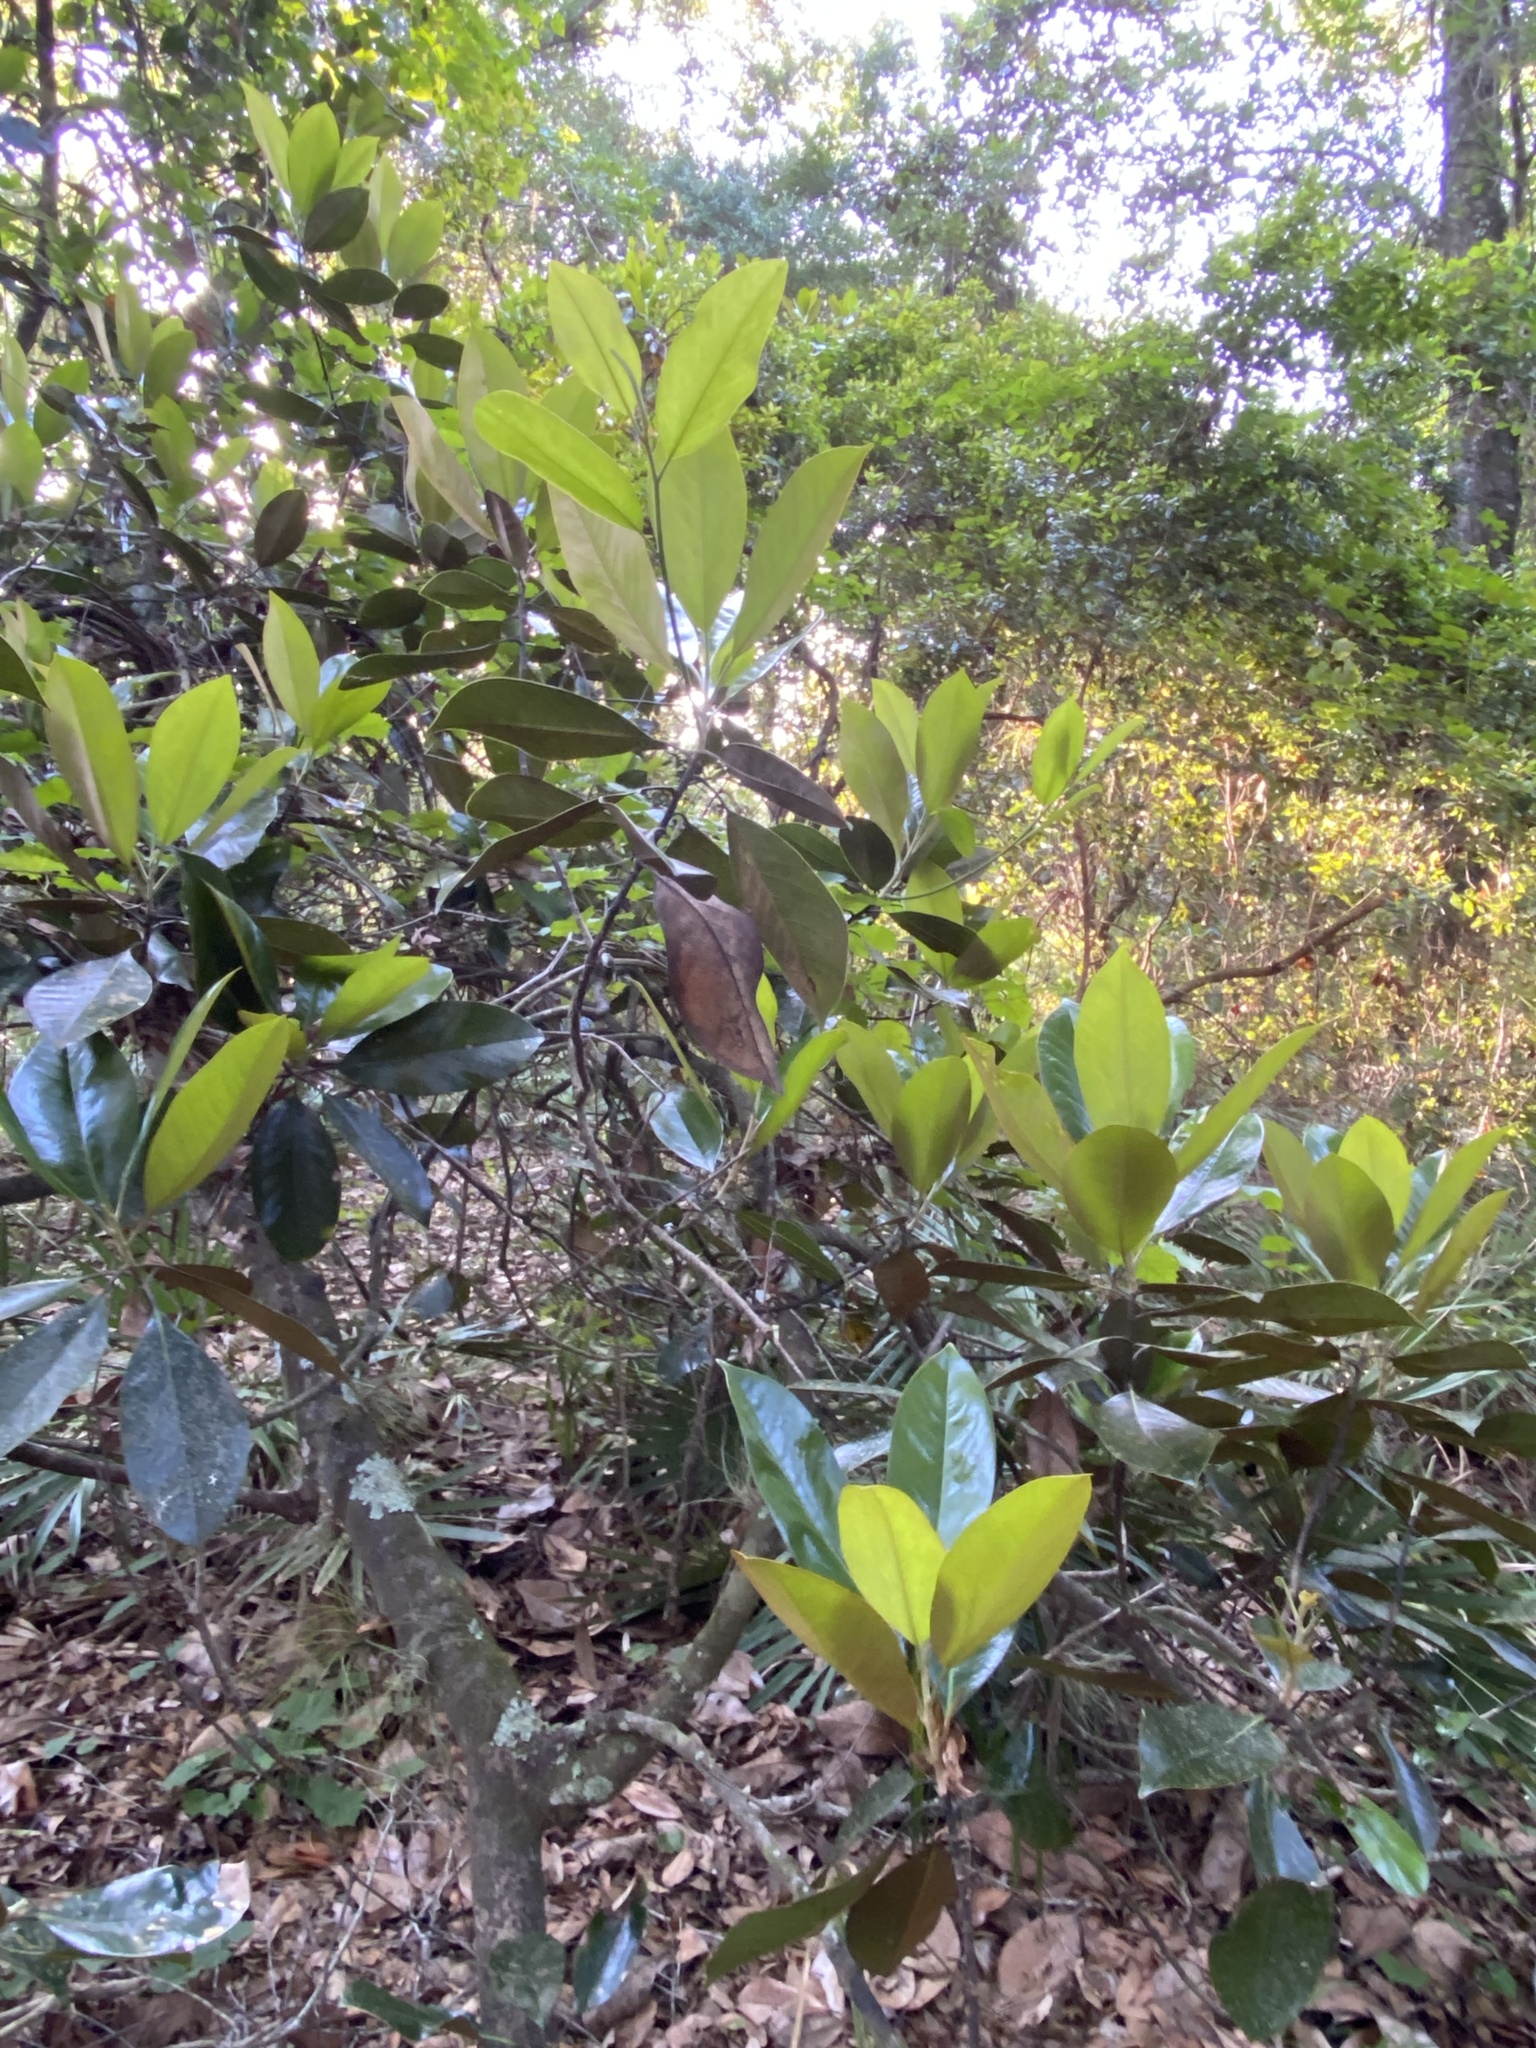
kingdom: Plantae
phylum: Tracheophyta
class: Magnoliopsida
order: Magnoliales
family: Magnoliaceae
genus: Magnolia
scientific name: Magnolia grandiflora
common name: Southern magnolia
